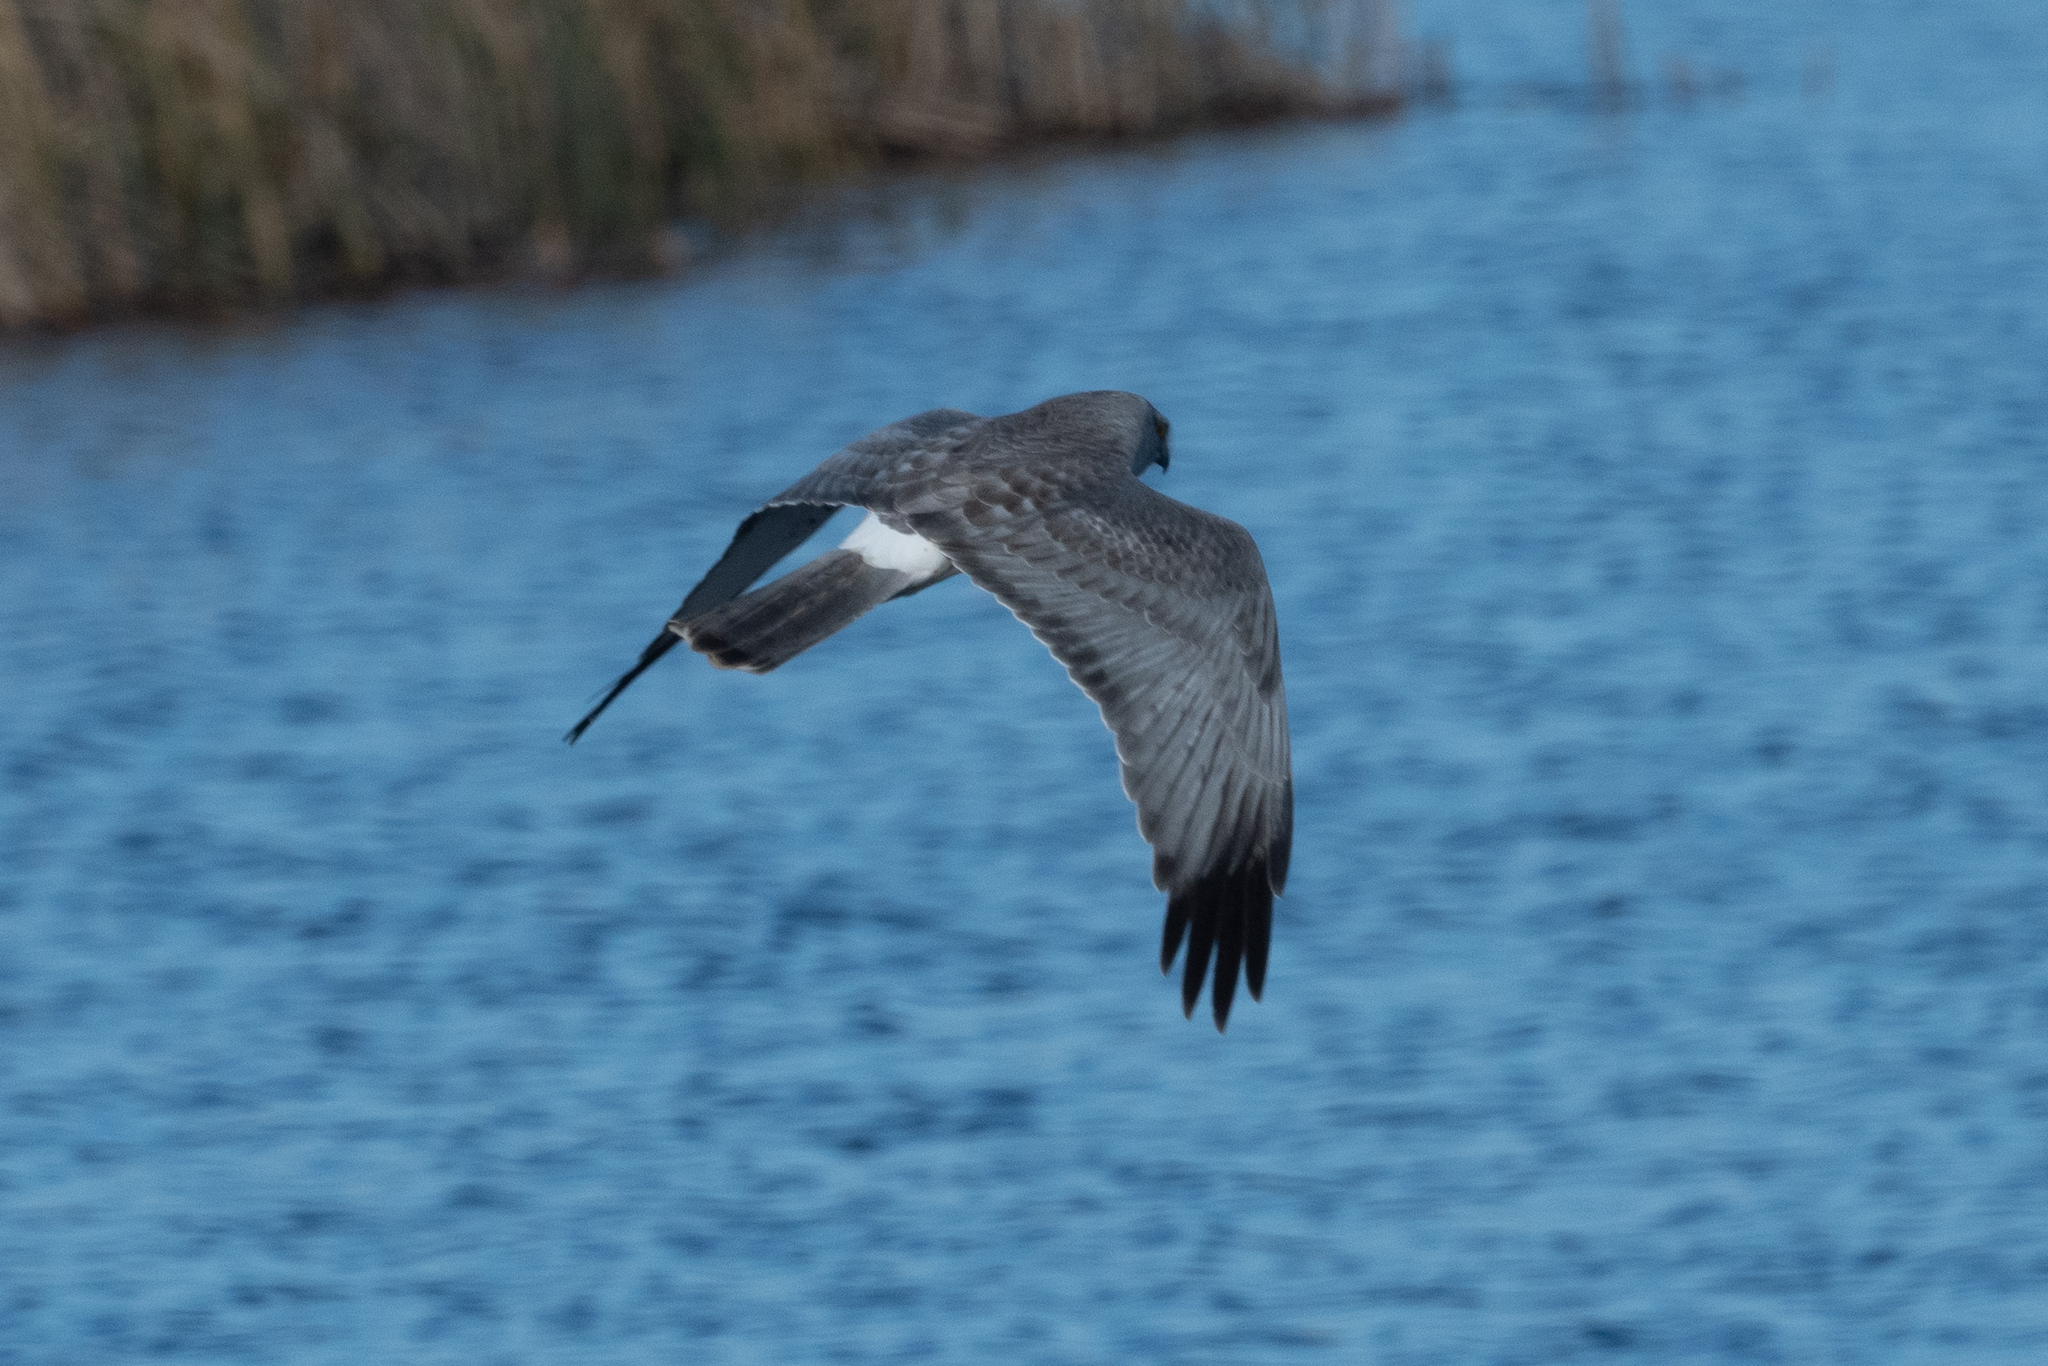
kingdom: Animalia
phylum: Chordata
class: Aves
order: Accipitriformes
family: Accipitridae
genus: Circus
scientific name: Circus cyaneus
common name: Hen harrier
